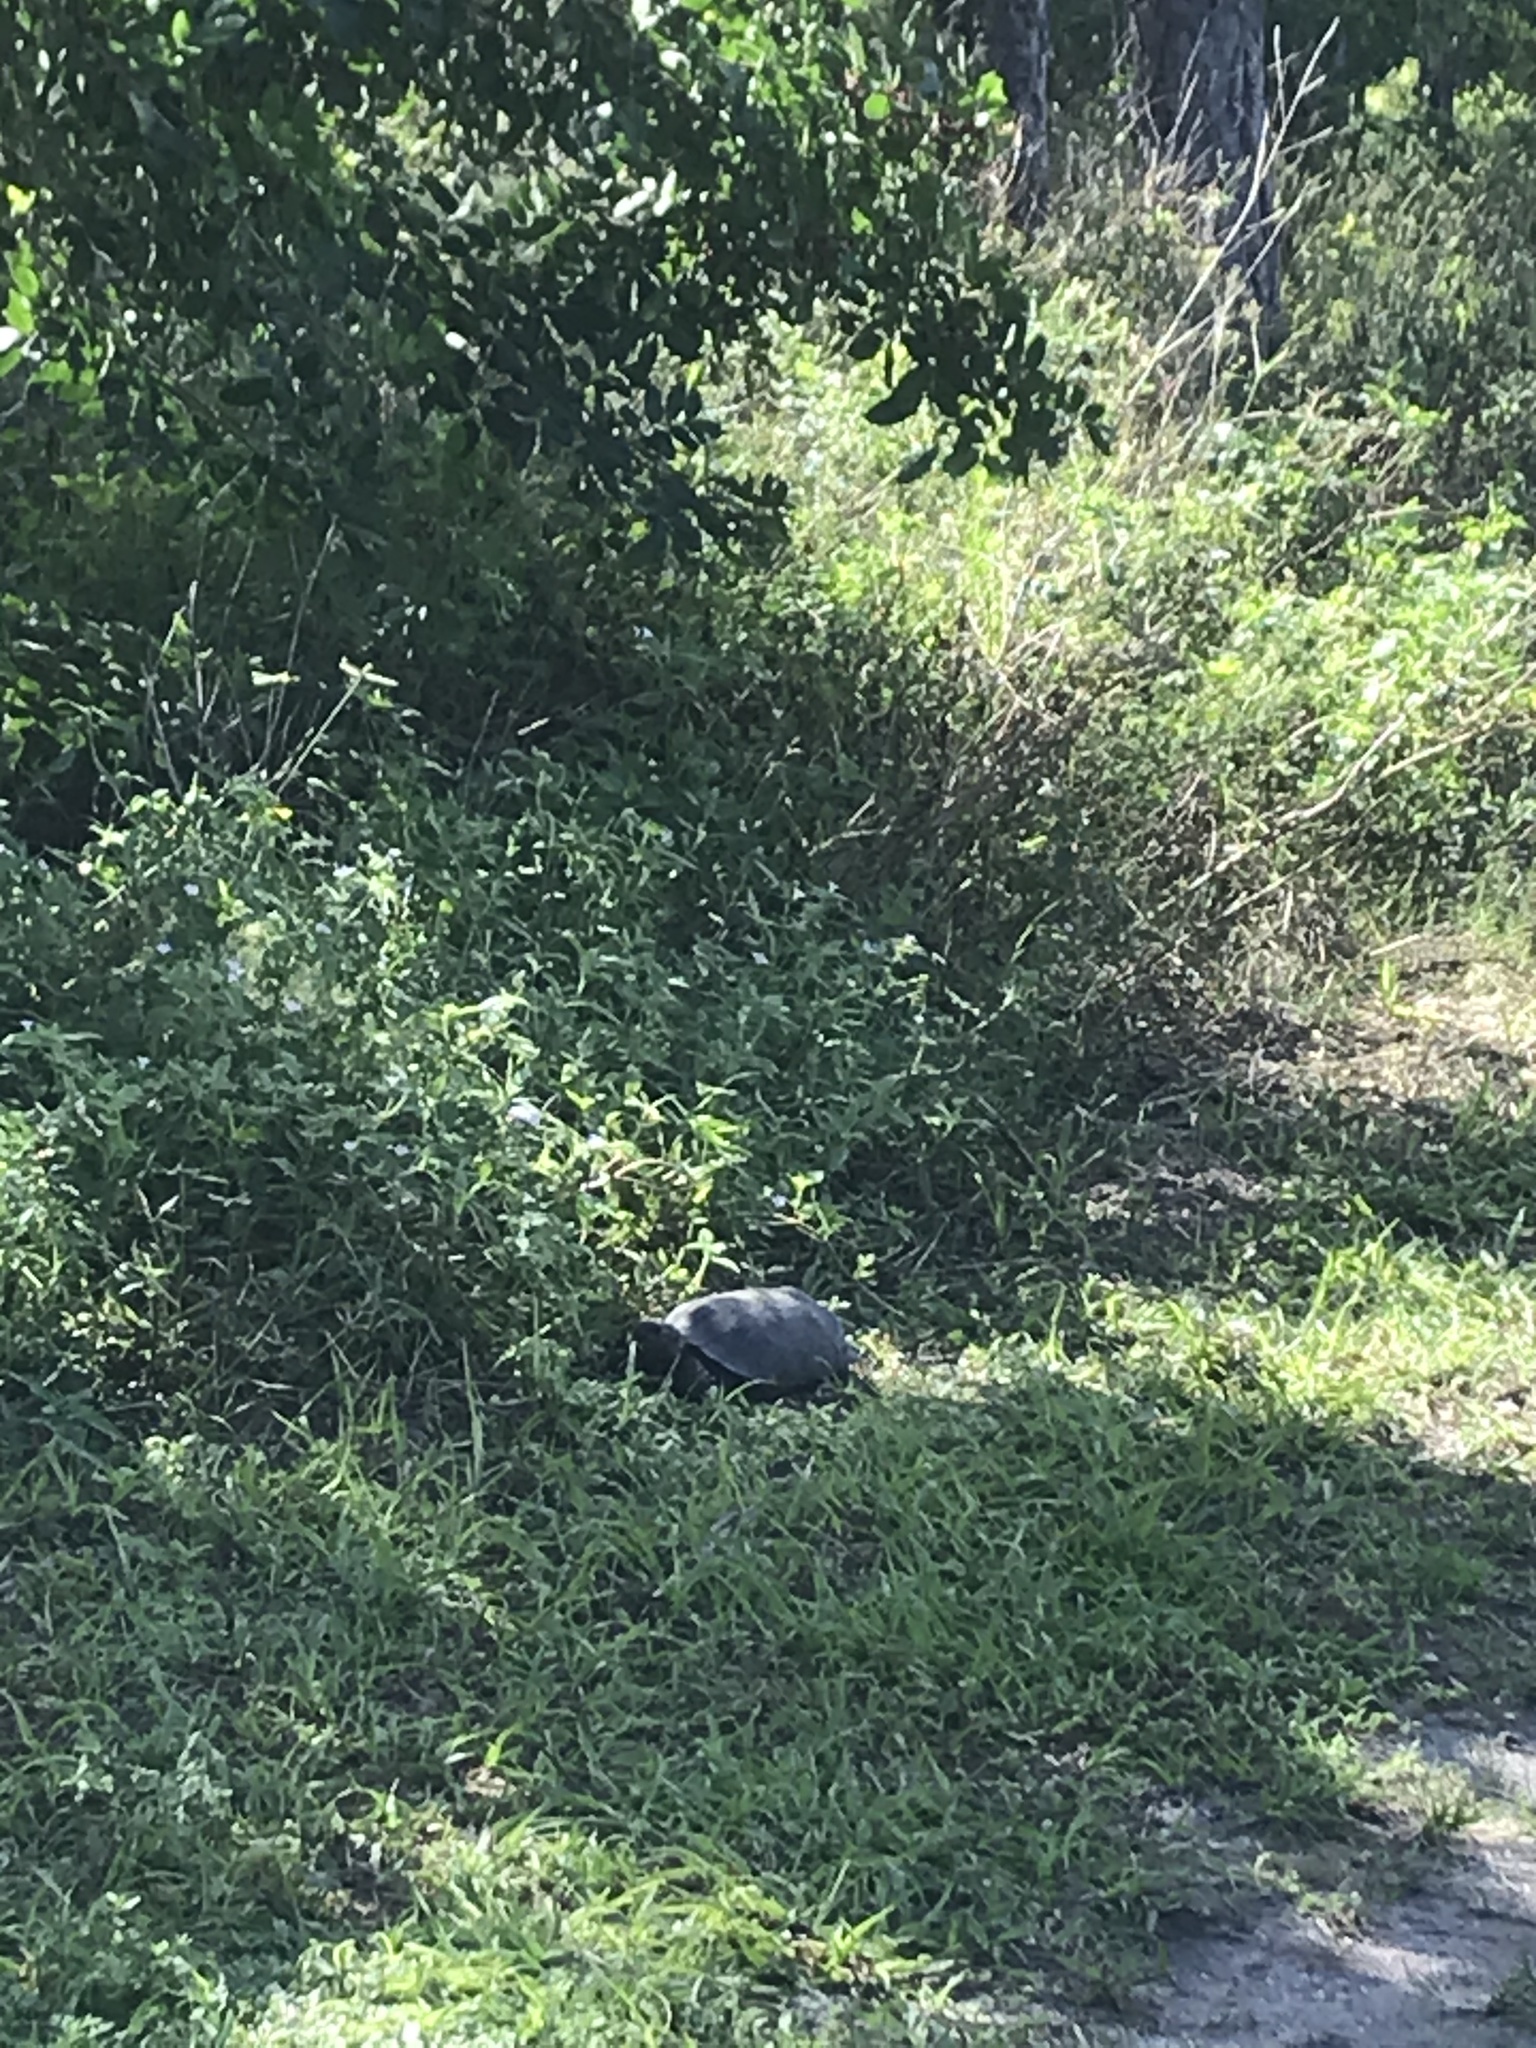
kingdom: Animalia
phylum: Chordata
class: Testudines
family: Testudinidae
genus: Gopherus
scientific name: Gopherus polyphemus
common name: Florida gopher tortoise
